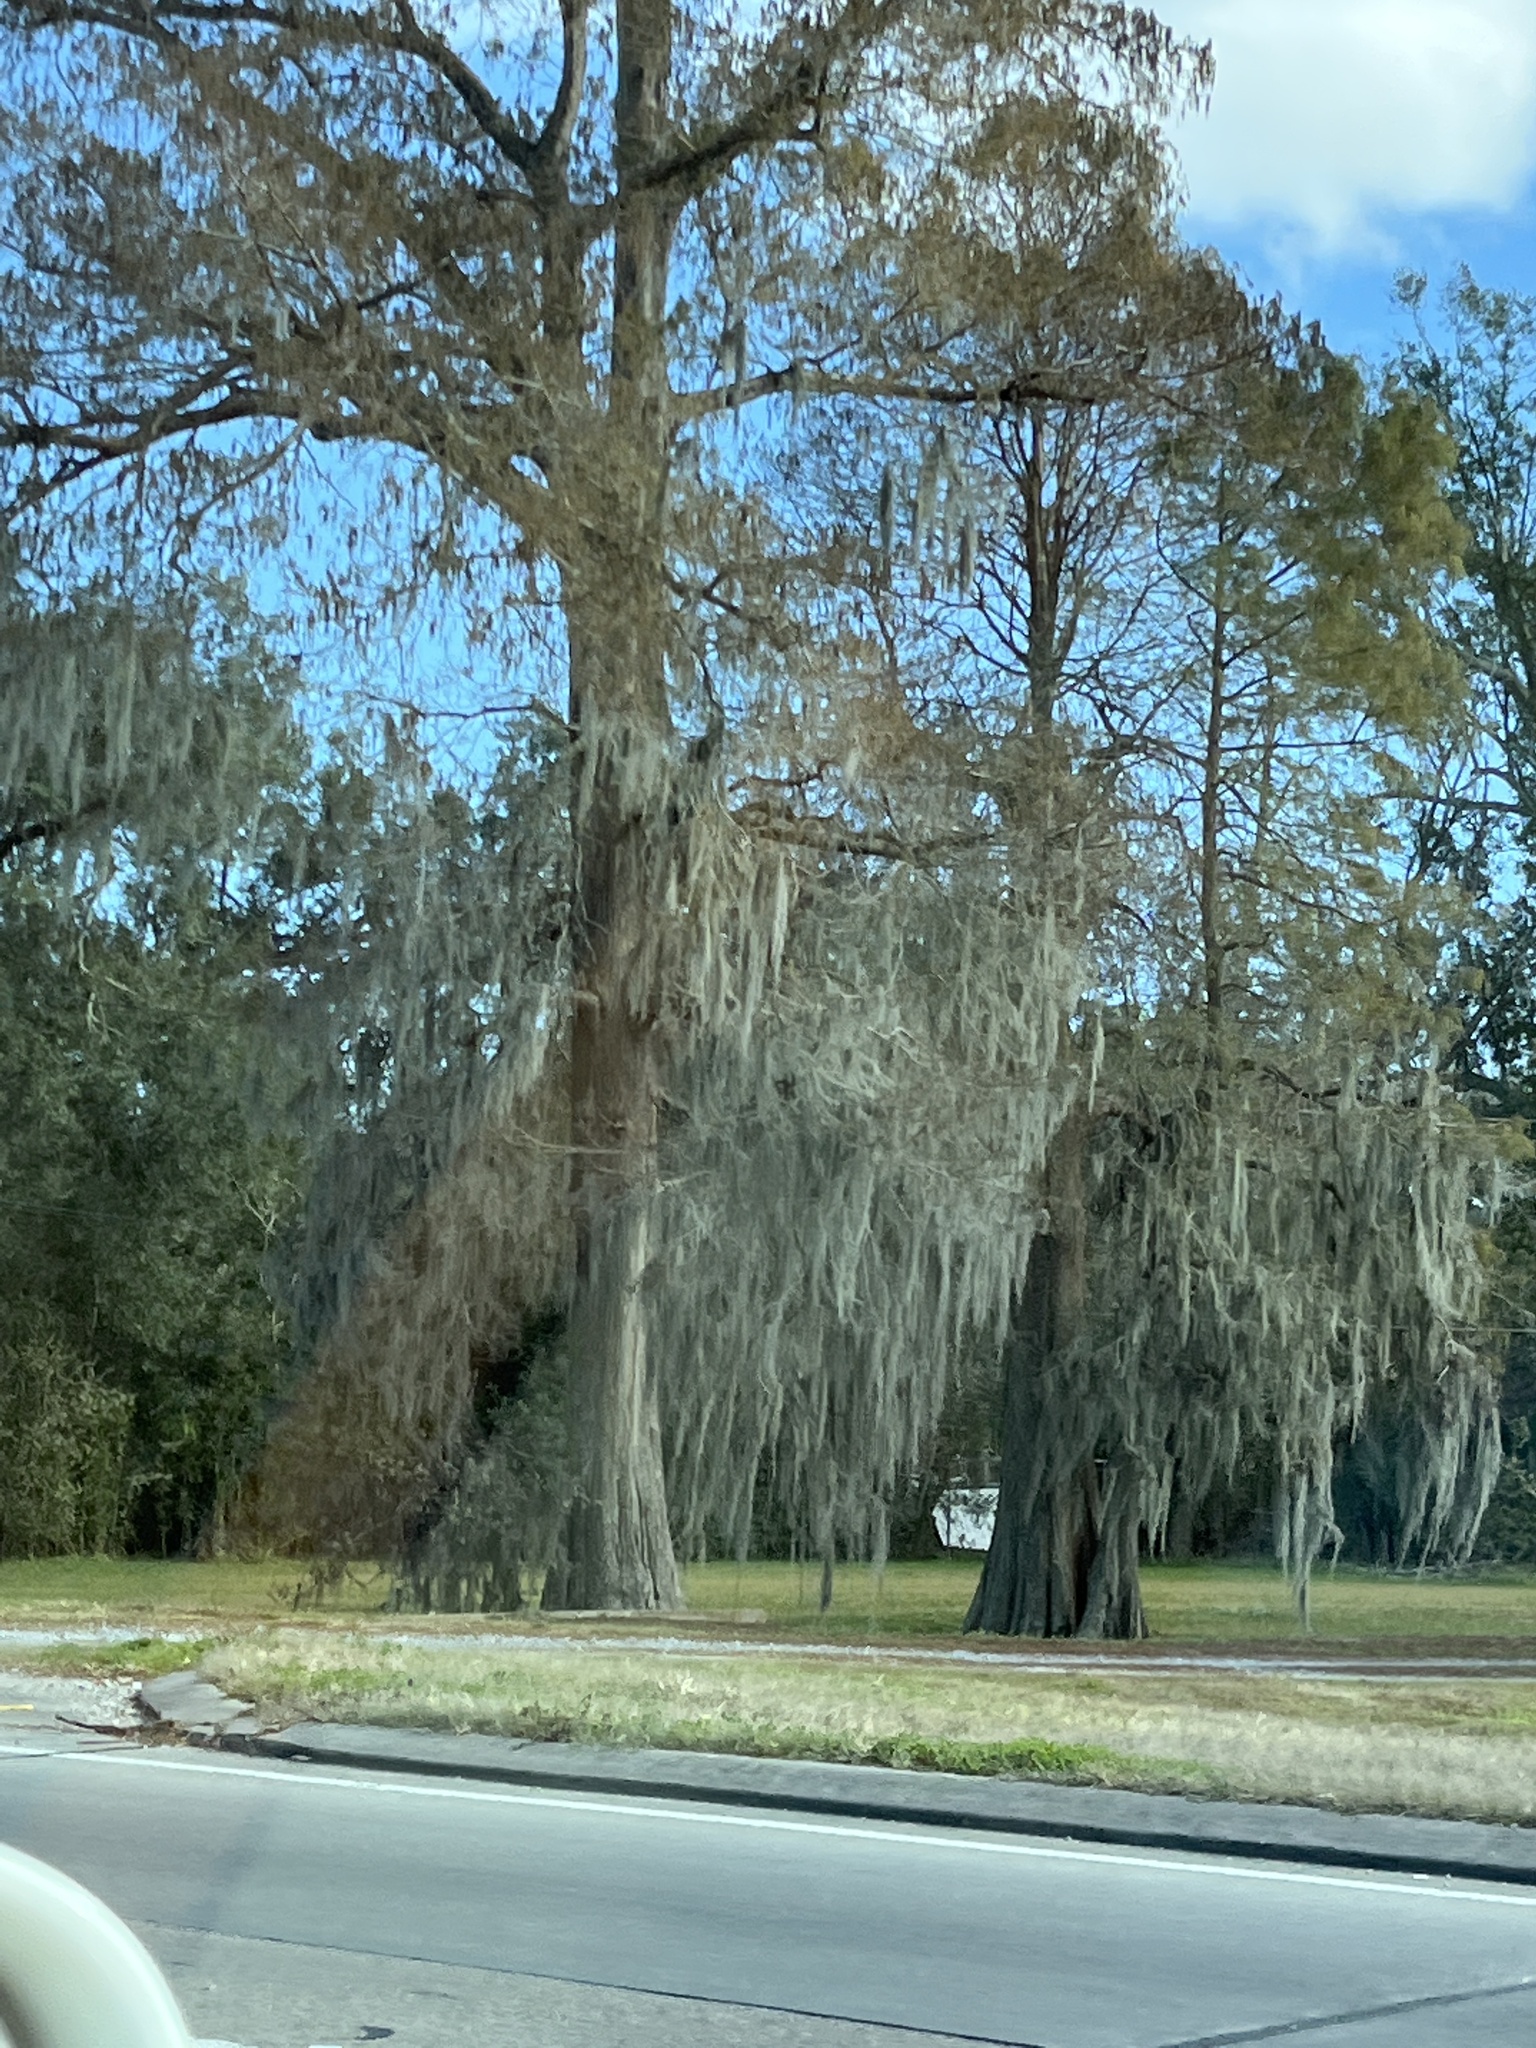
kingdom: Plantae
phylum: Tracheophyta
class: Liliopsida
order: Poales
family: Bromeliaceae
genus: Tillandsia
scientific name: Tillandsia usneoides
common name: Spanish moss
